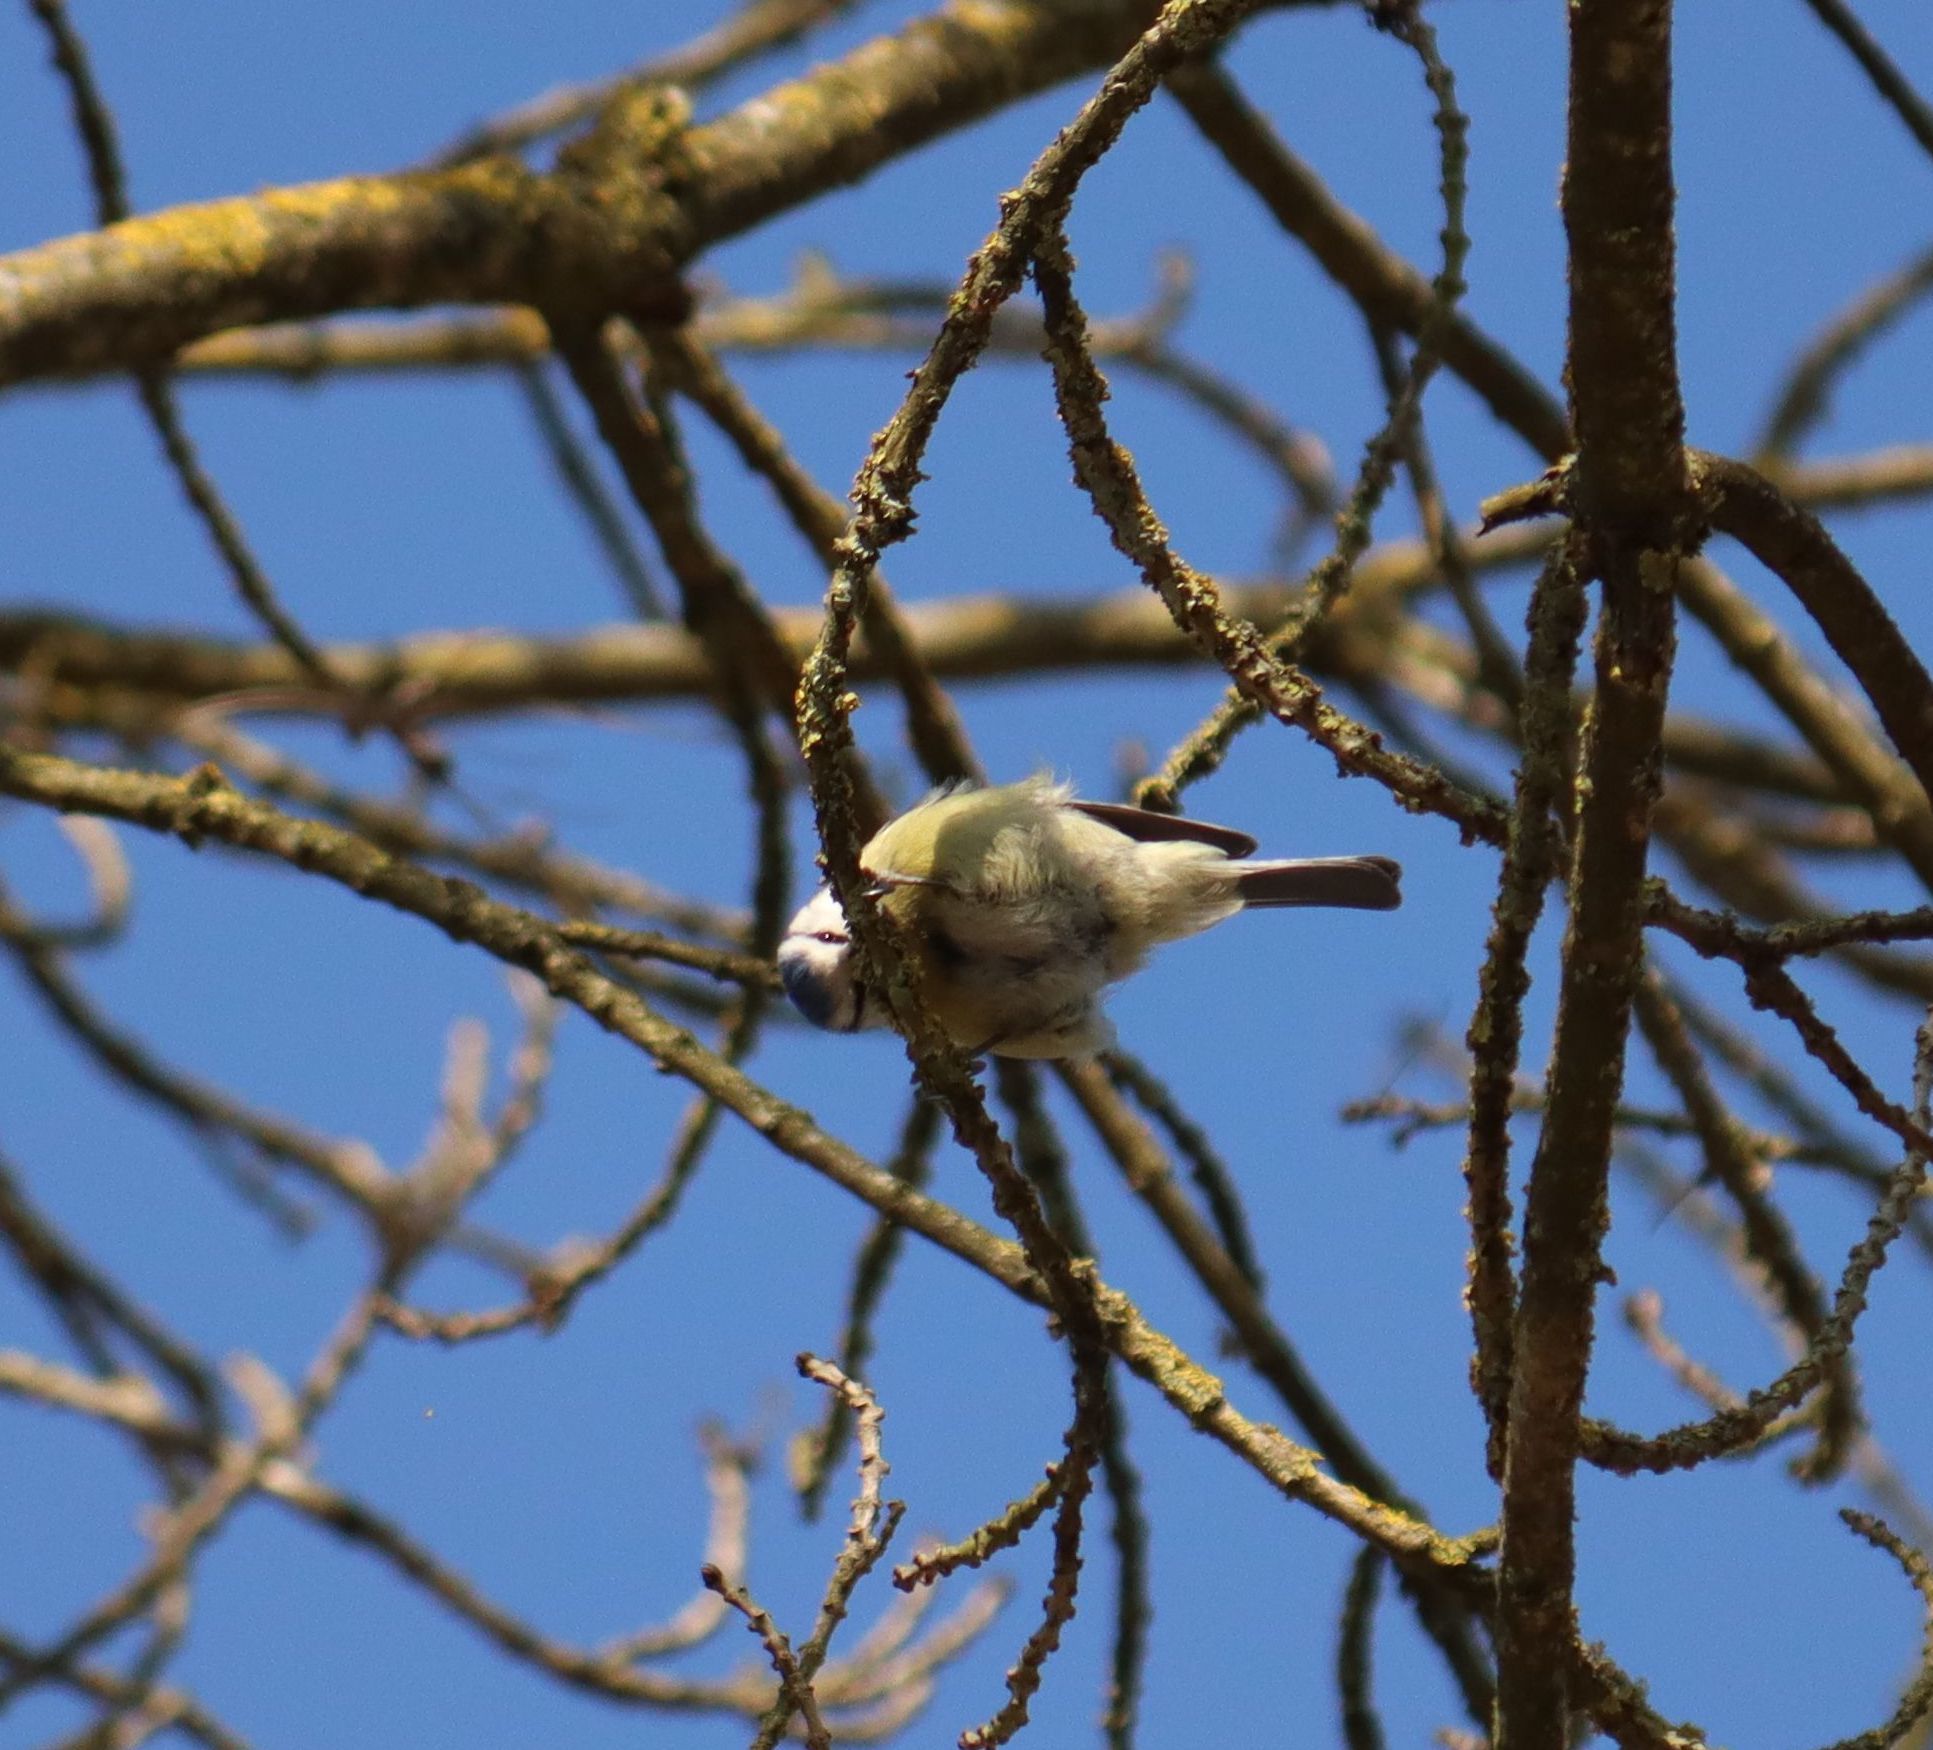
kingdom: Animalia
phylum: Chordata
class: Aves
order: Passeriformes
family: Paridae
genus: Cyanistes
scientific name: Cyanistes caeruleus
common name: Eurasian blue tit
